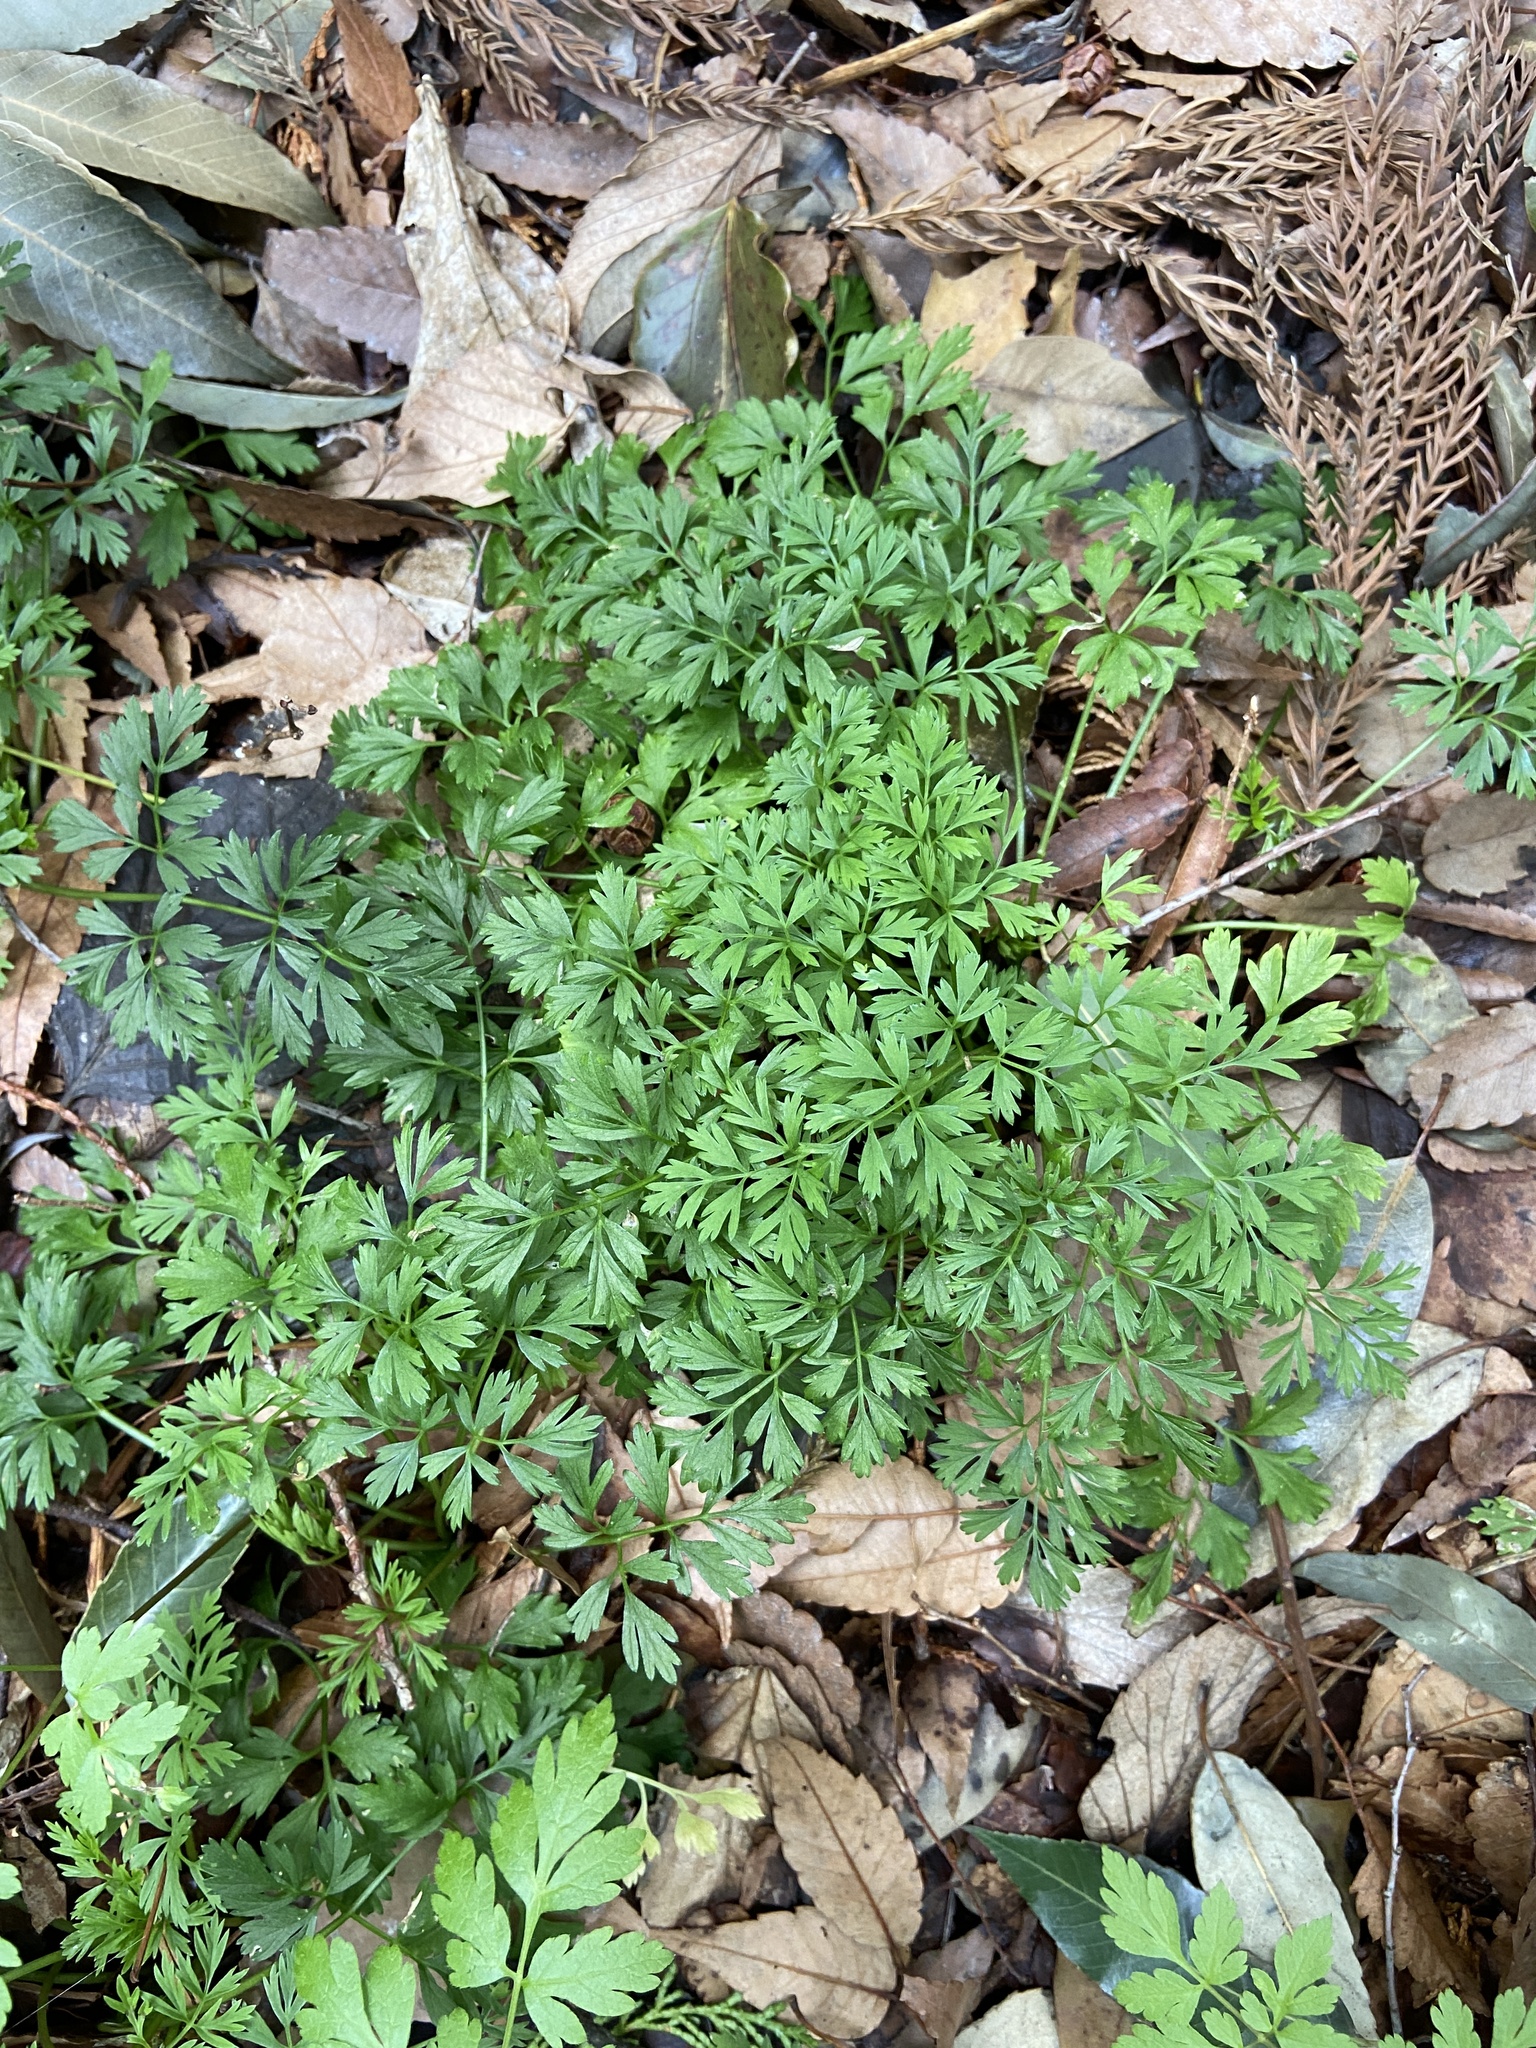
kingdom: Plantae
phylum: Tracheophyta
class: Magnoliopsida
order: Apiales
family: Apiaceae
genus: Oenanthe
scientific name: Oenanthe javanica
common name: Java water-dropwort
